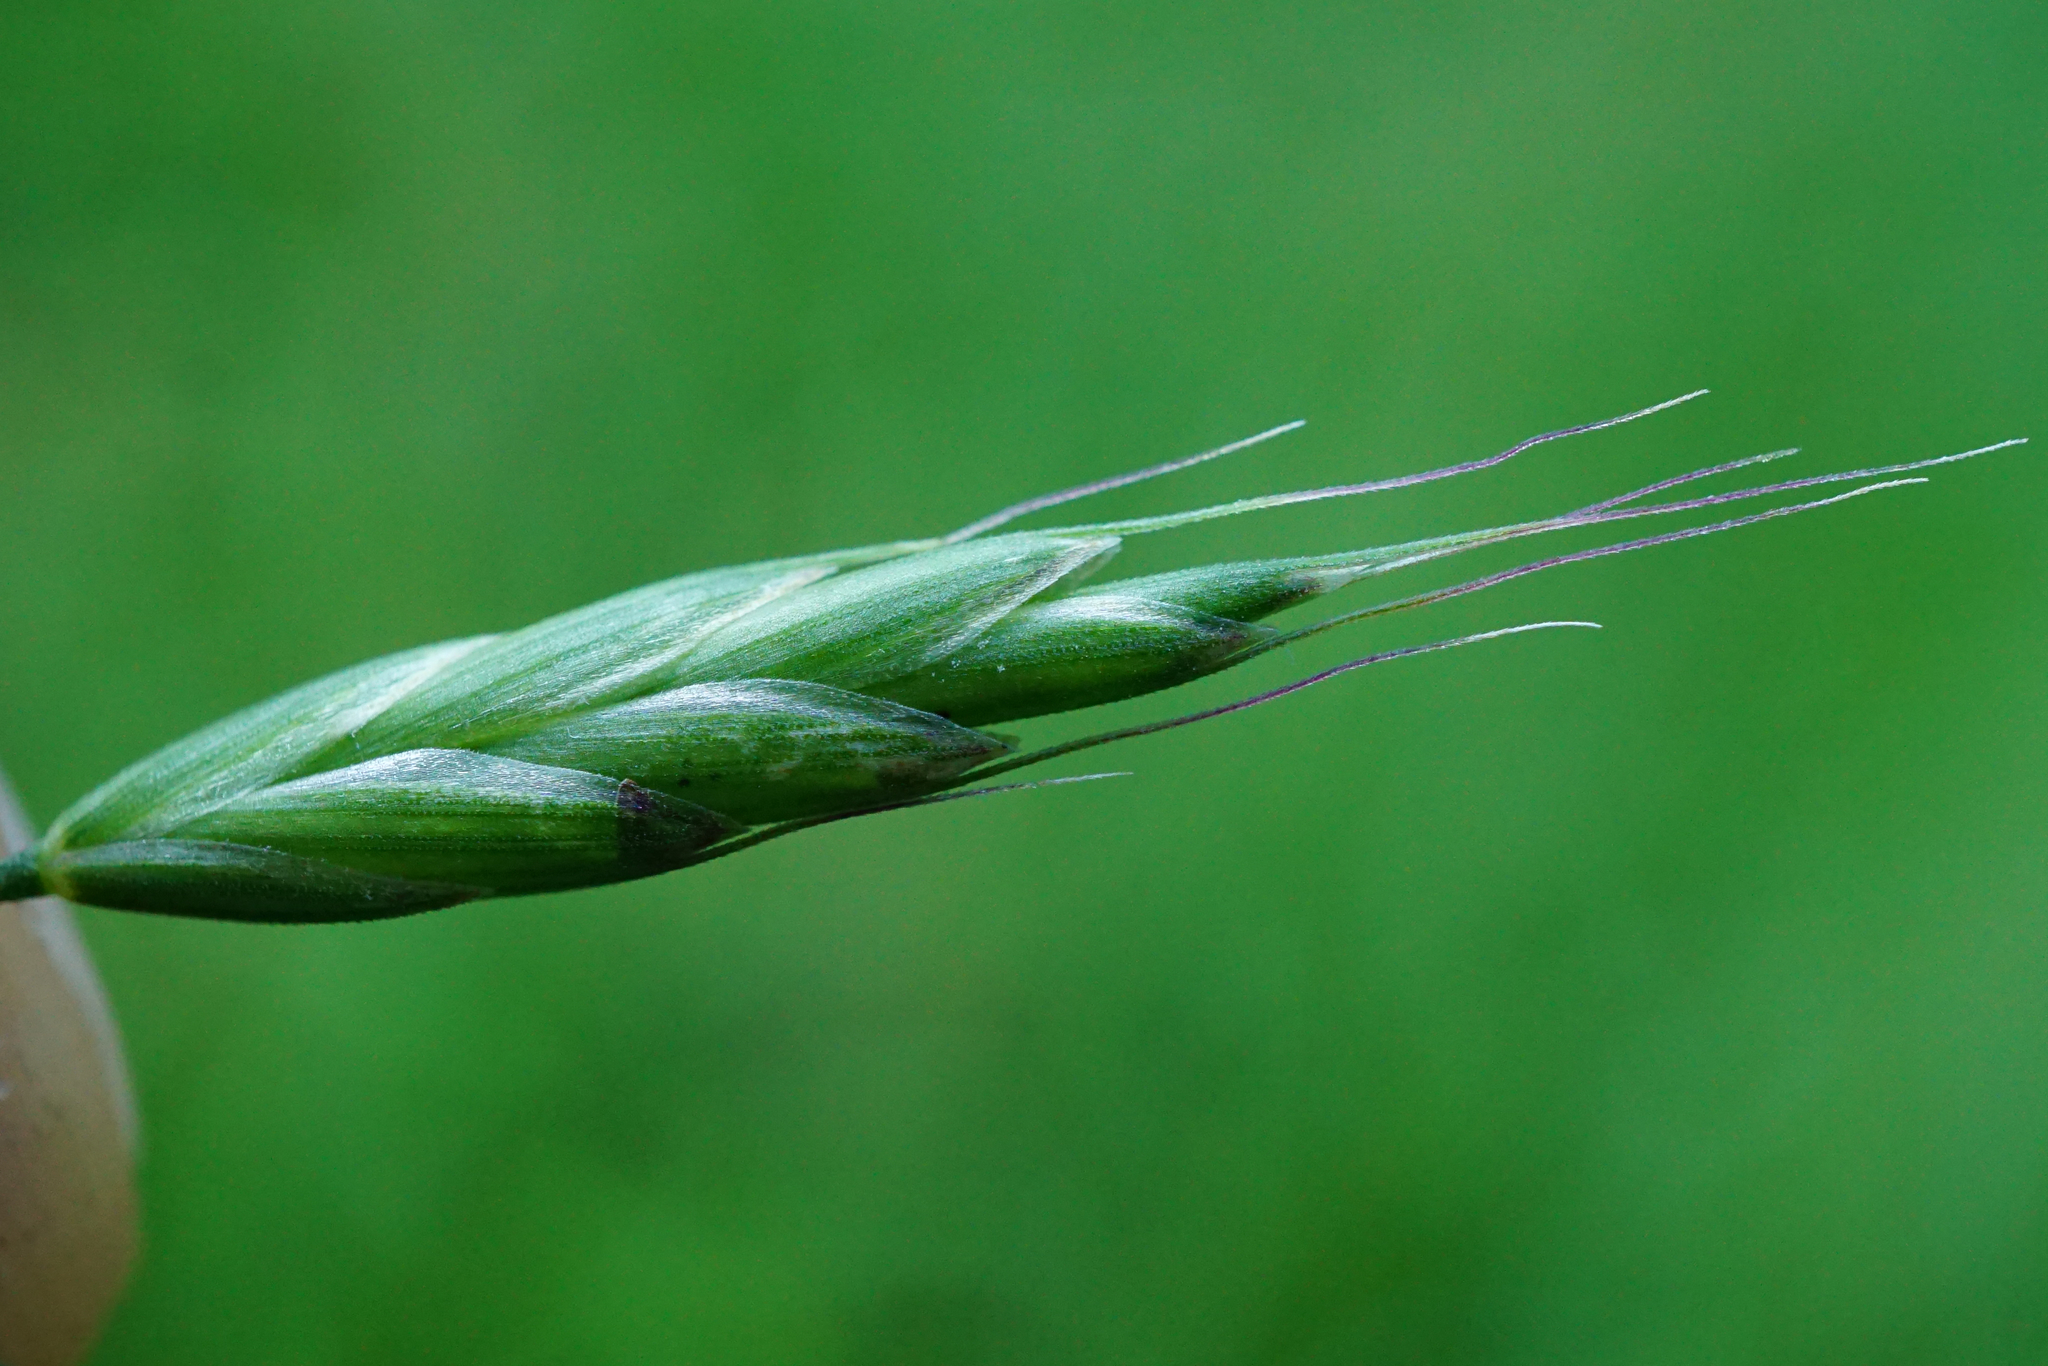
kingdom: Plantae
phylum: Tracheophyta
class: Liliopsida
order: Poales
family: Poaceae
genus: Bromus
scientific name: Bromus commutatus
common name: Meadow brome
